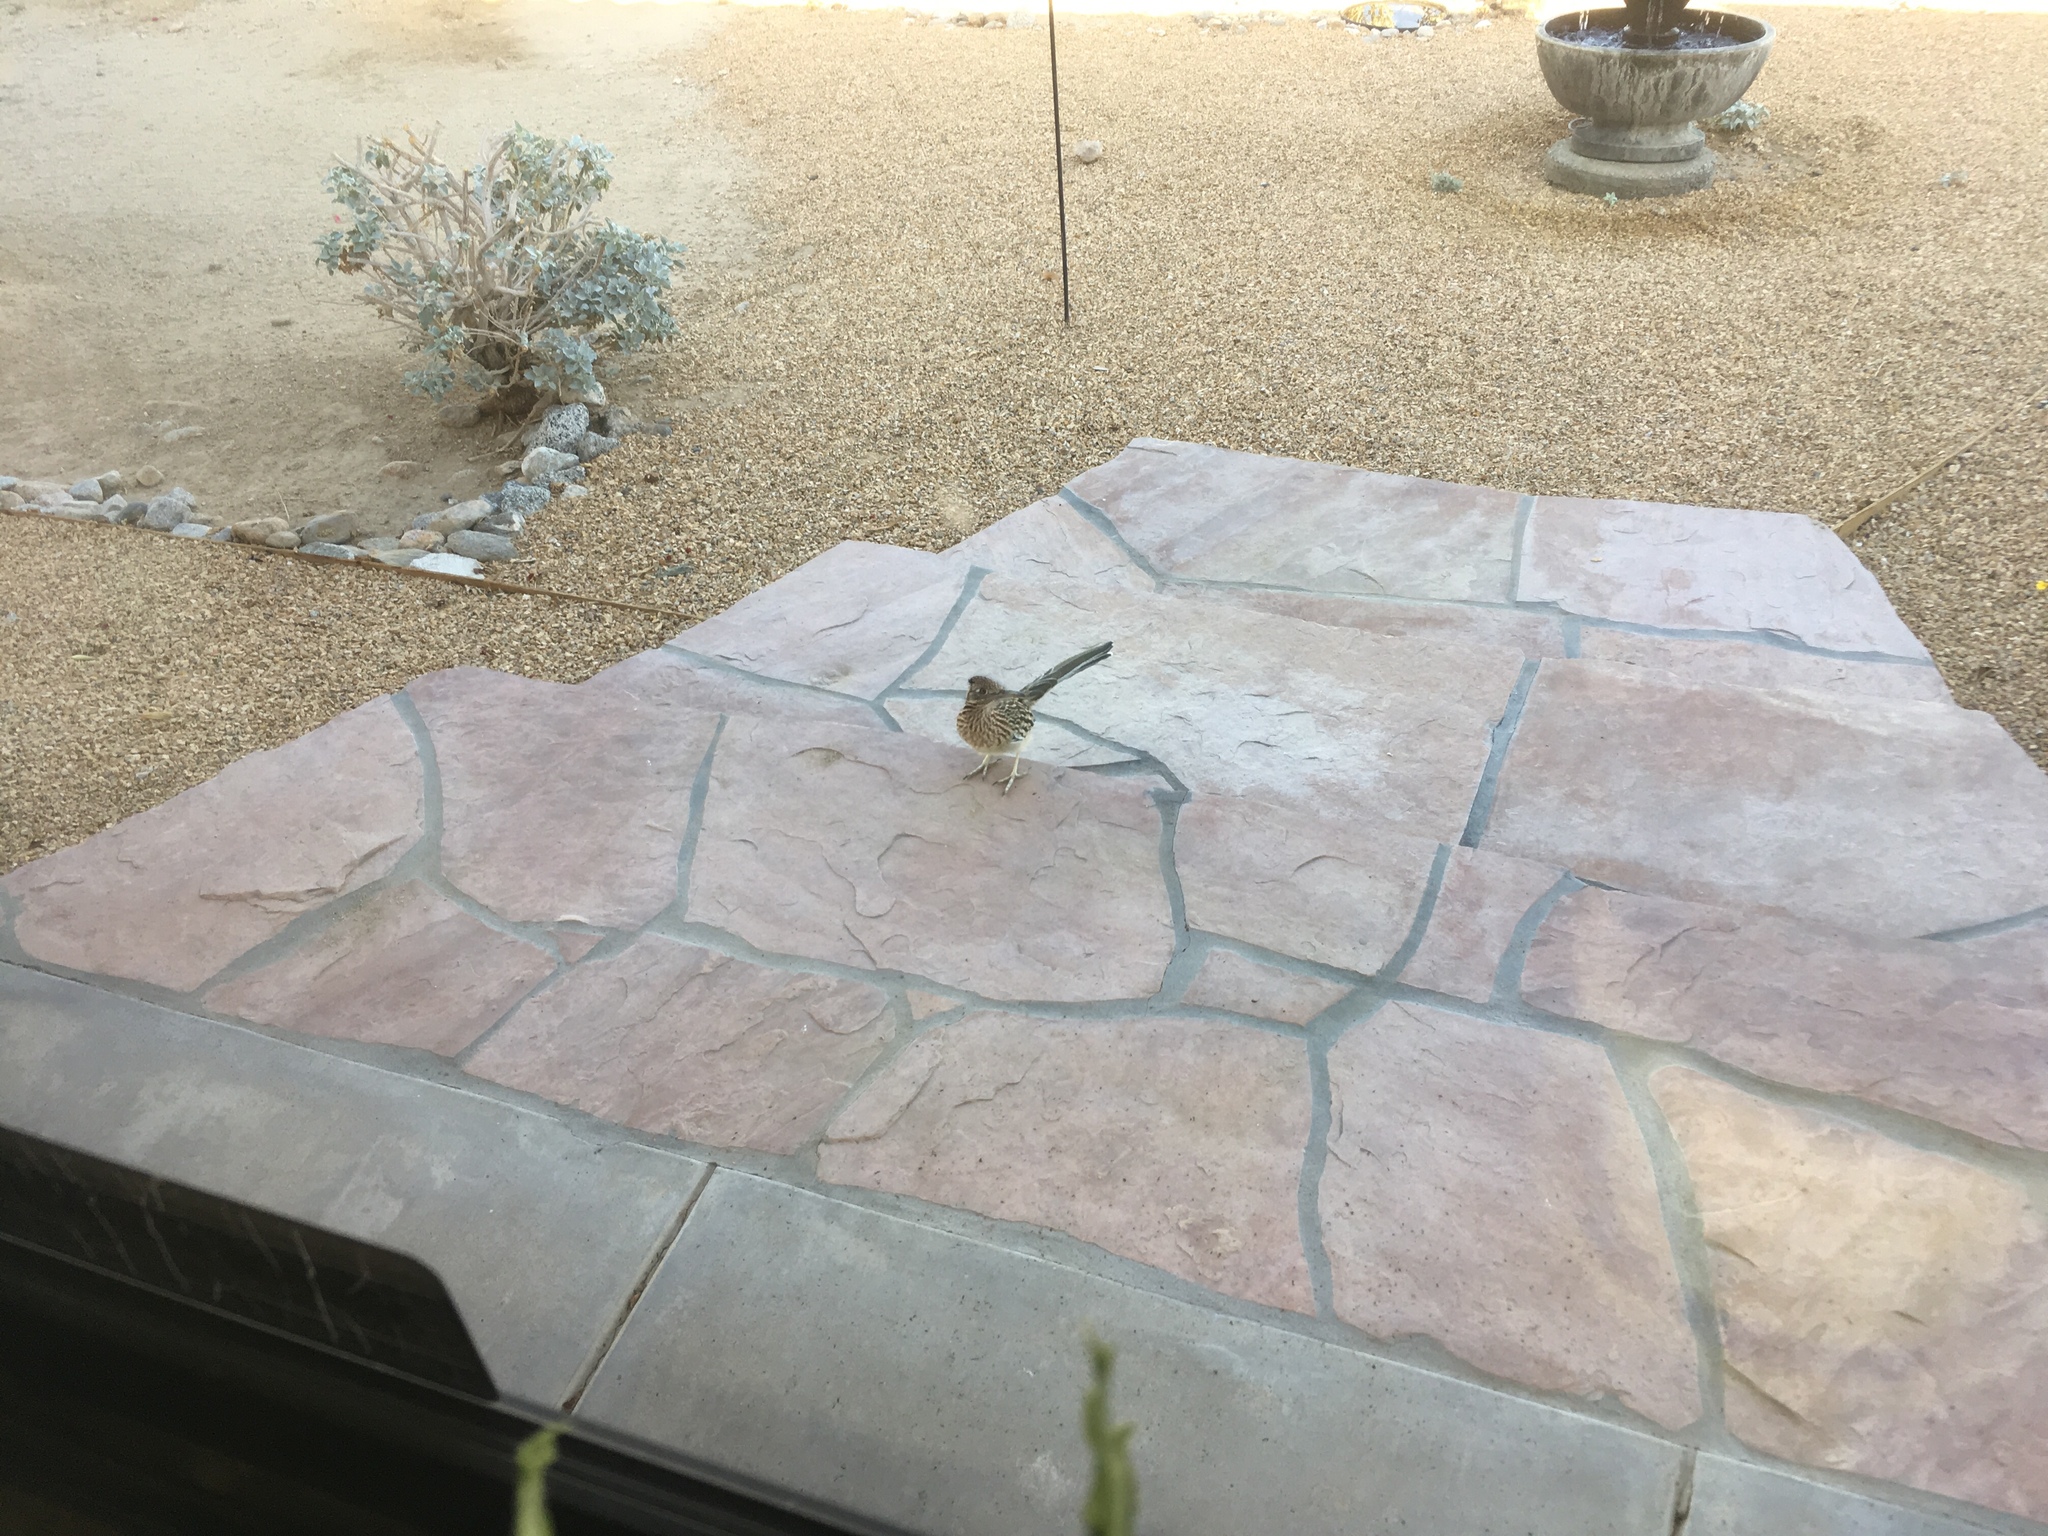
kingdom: Animalia
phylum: Chordata
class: Aves
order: Cuculiformes
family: Cuculidae
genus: Geococcyx
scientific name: Geococcyx californianus
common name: Greater roadrunner
